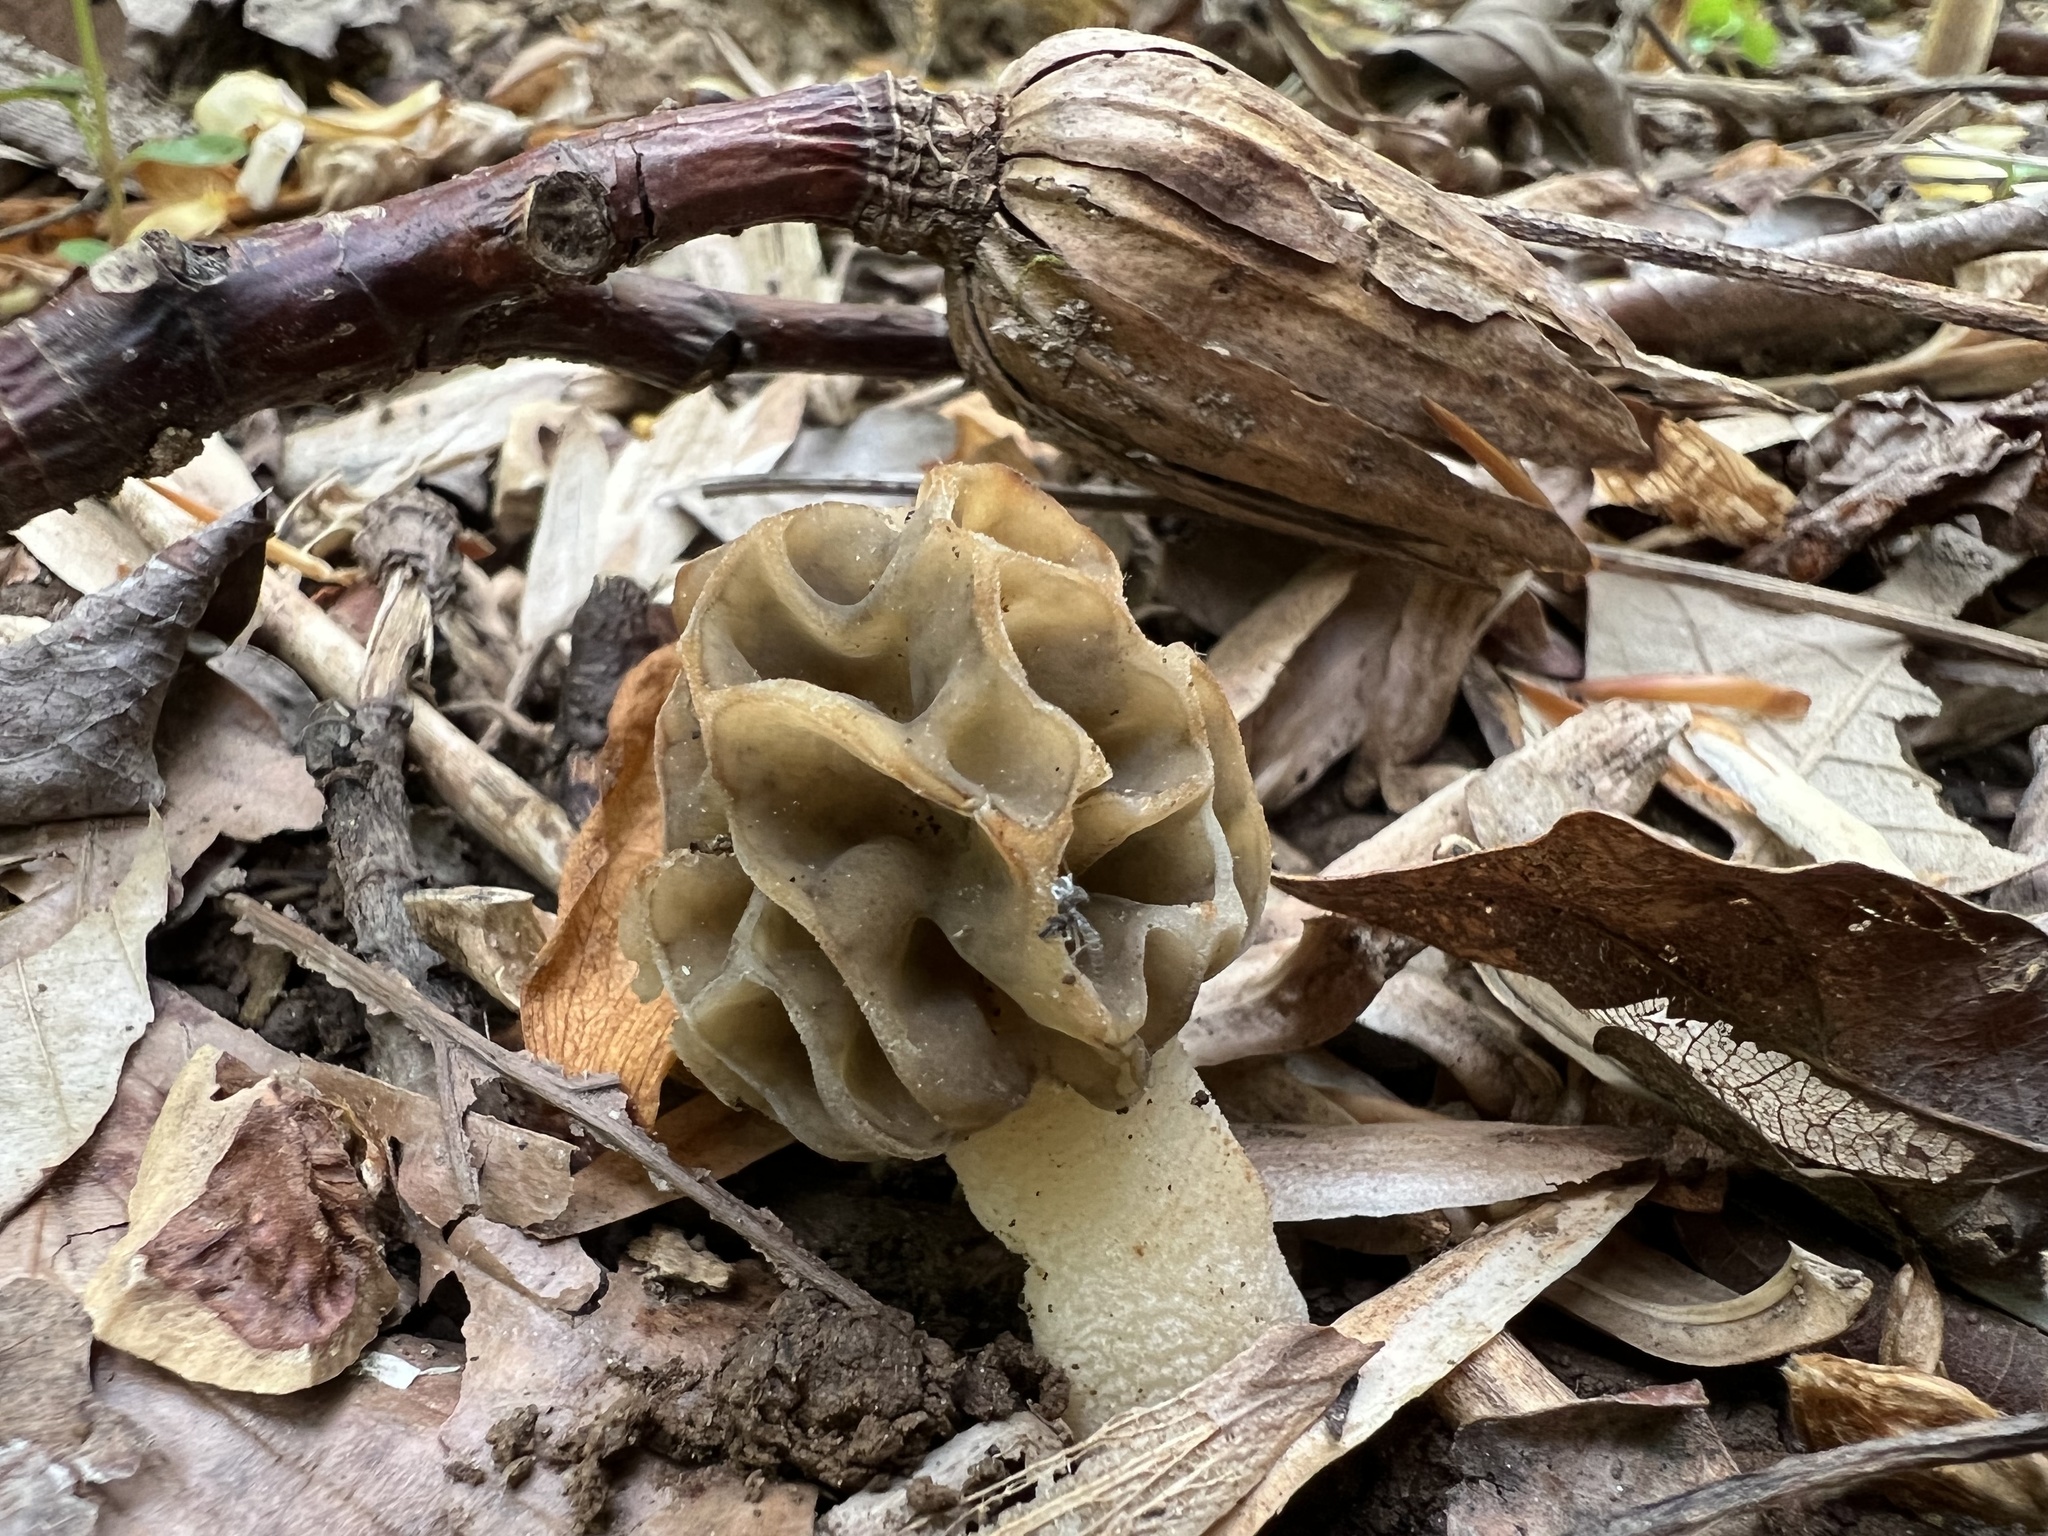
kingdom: Fungi
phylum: Ascomycota
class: Pezizomycetes
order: Pezizales
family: Morchellaceae
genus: Morchella
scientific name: Morchella diminutiva
